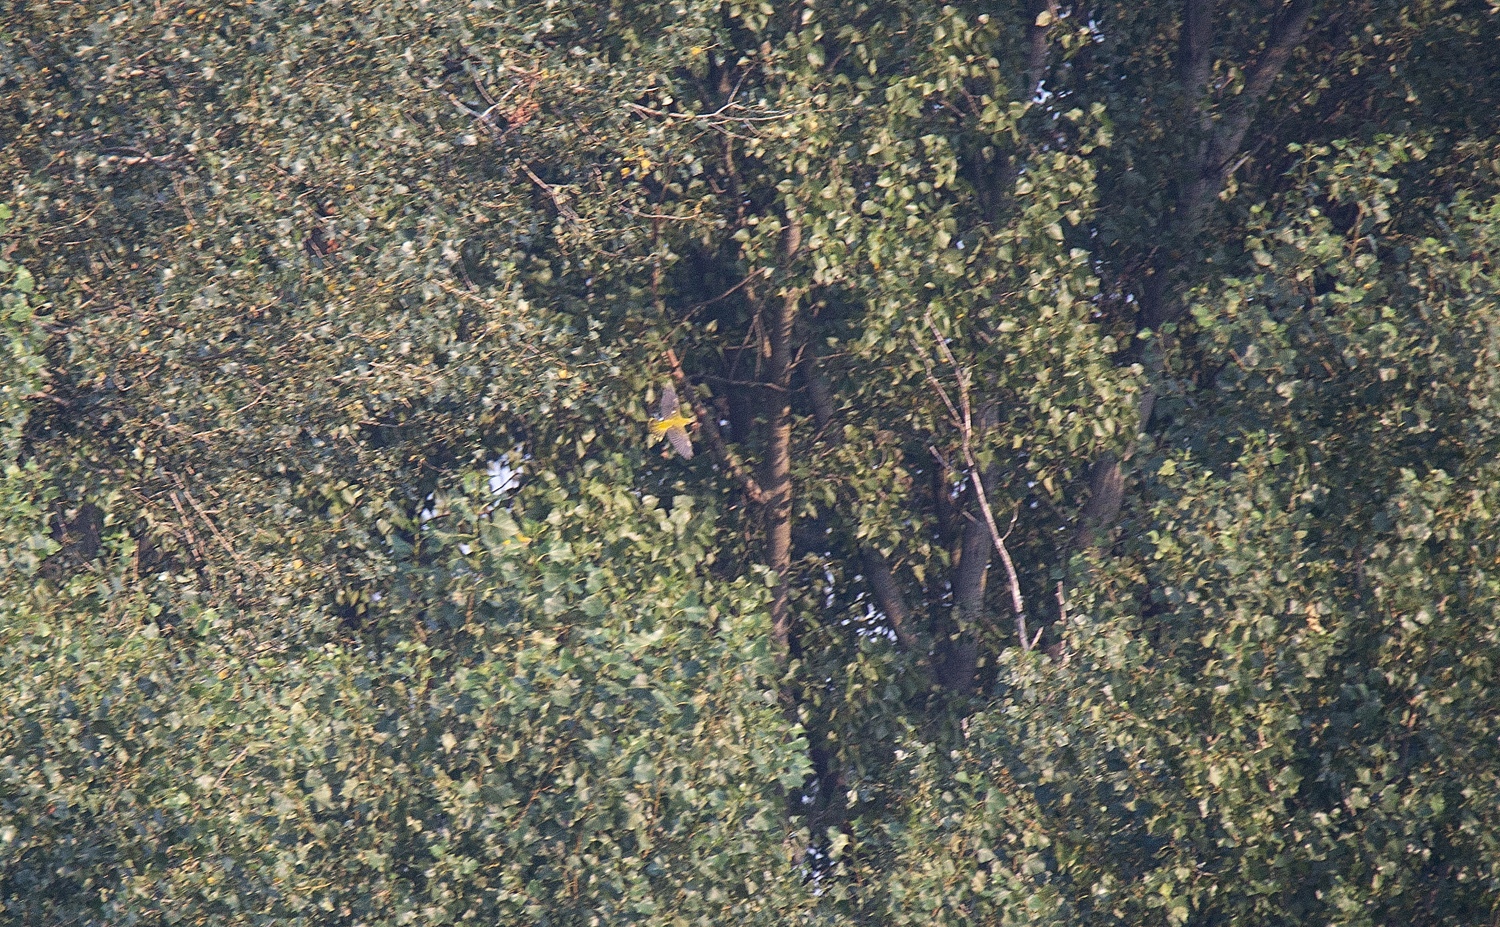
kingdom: Animalia
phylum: Chordata
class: Aves
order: Passeriformes
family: Oriolidae
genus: Oriolus
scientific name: Oriolus oriolus
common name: Eurasian golden oriole
